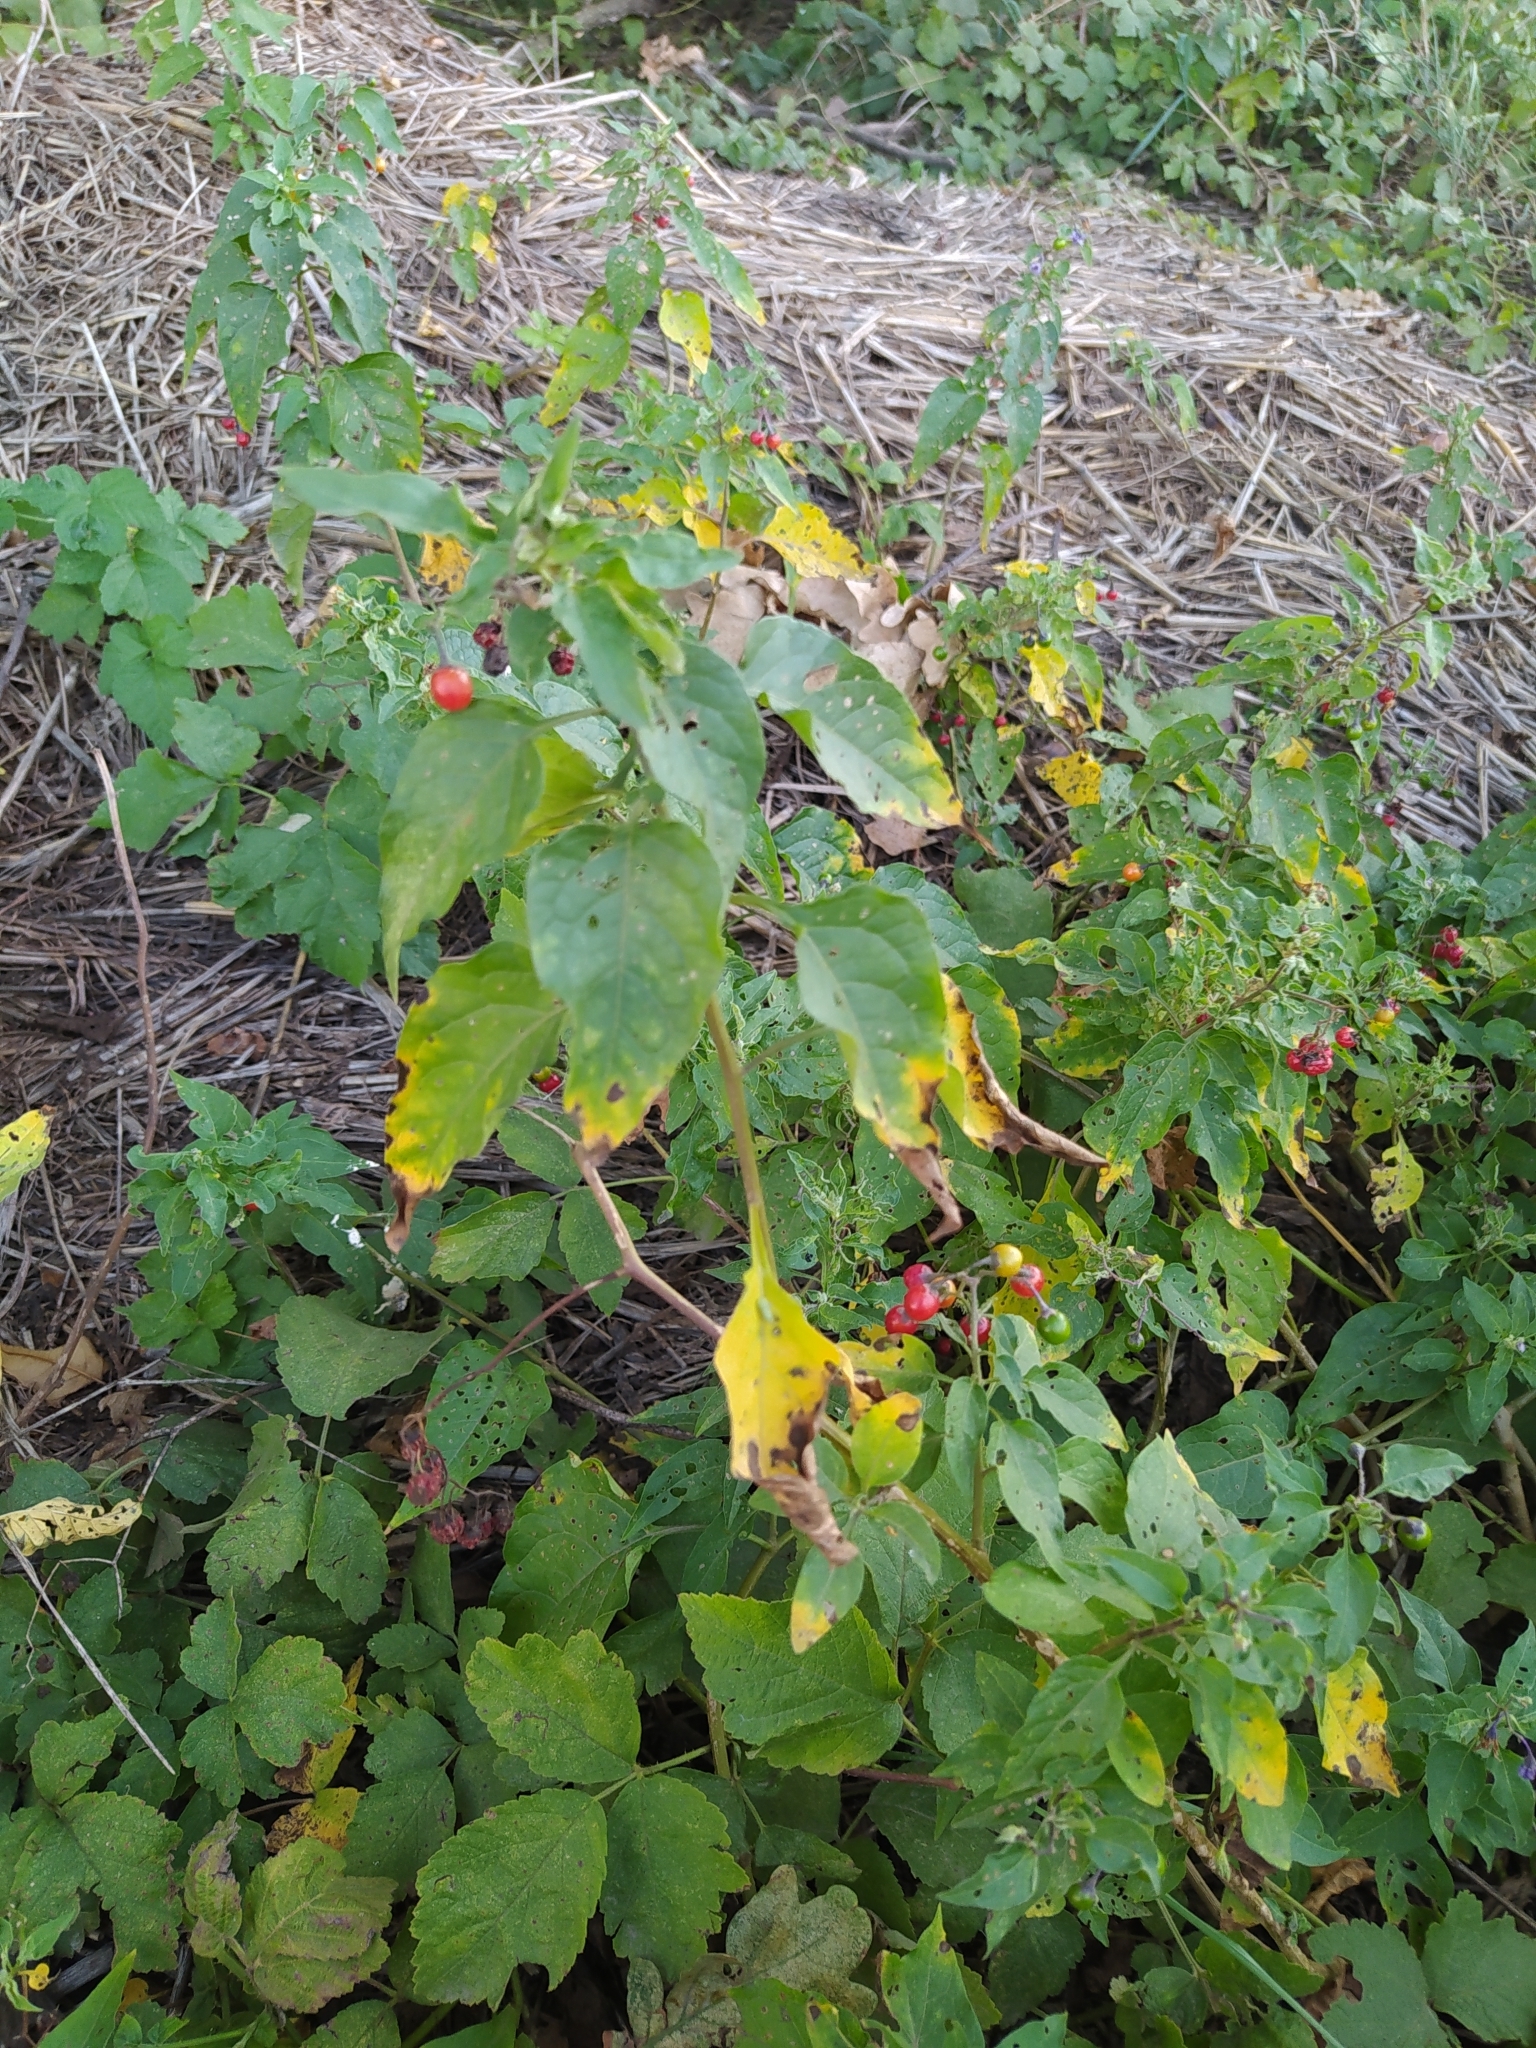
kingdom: Plantae
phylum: Tracheophyta
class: Magnoliopsida
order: Solanales
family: Solanaceae
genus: Solanum
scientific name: Solanum dulcamara
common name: Climbing nightshade
